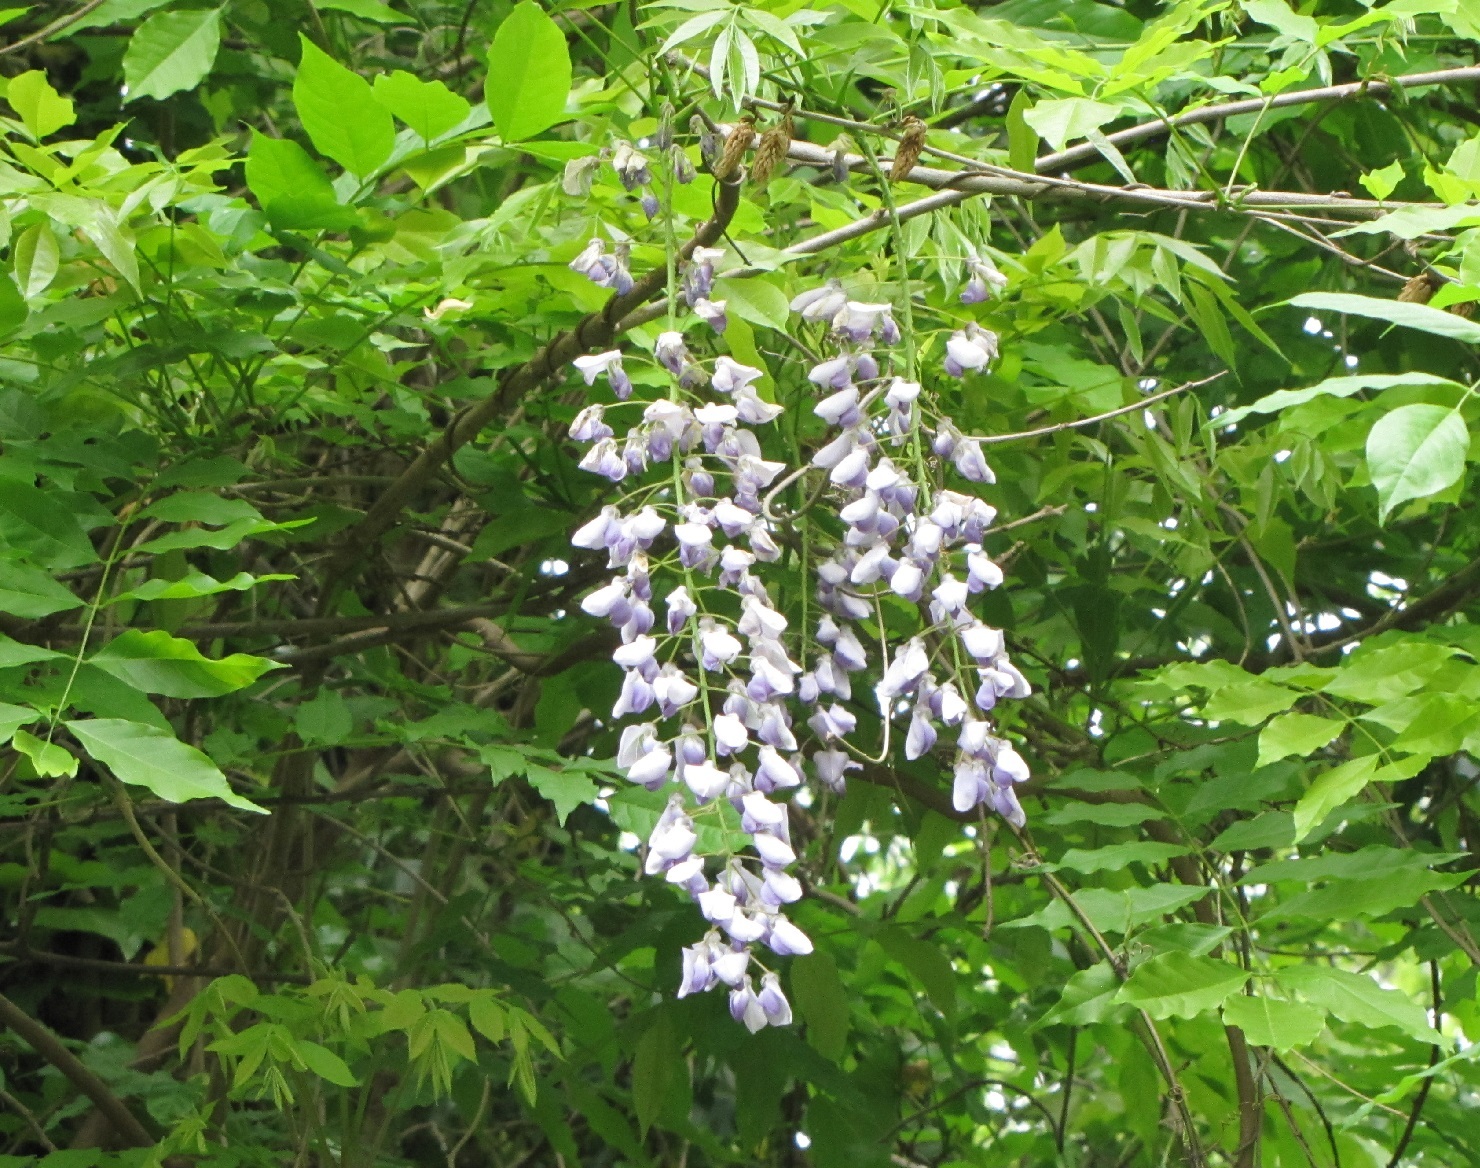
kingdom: Plantae
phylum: Tracheophyta
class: Magnoliopsida
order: Fabales
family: Fabaceae
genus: Wisteria
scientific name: Wisteria sinensis
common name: Chinese wisteria
